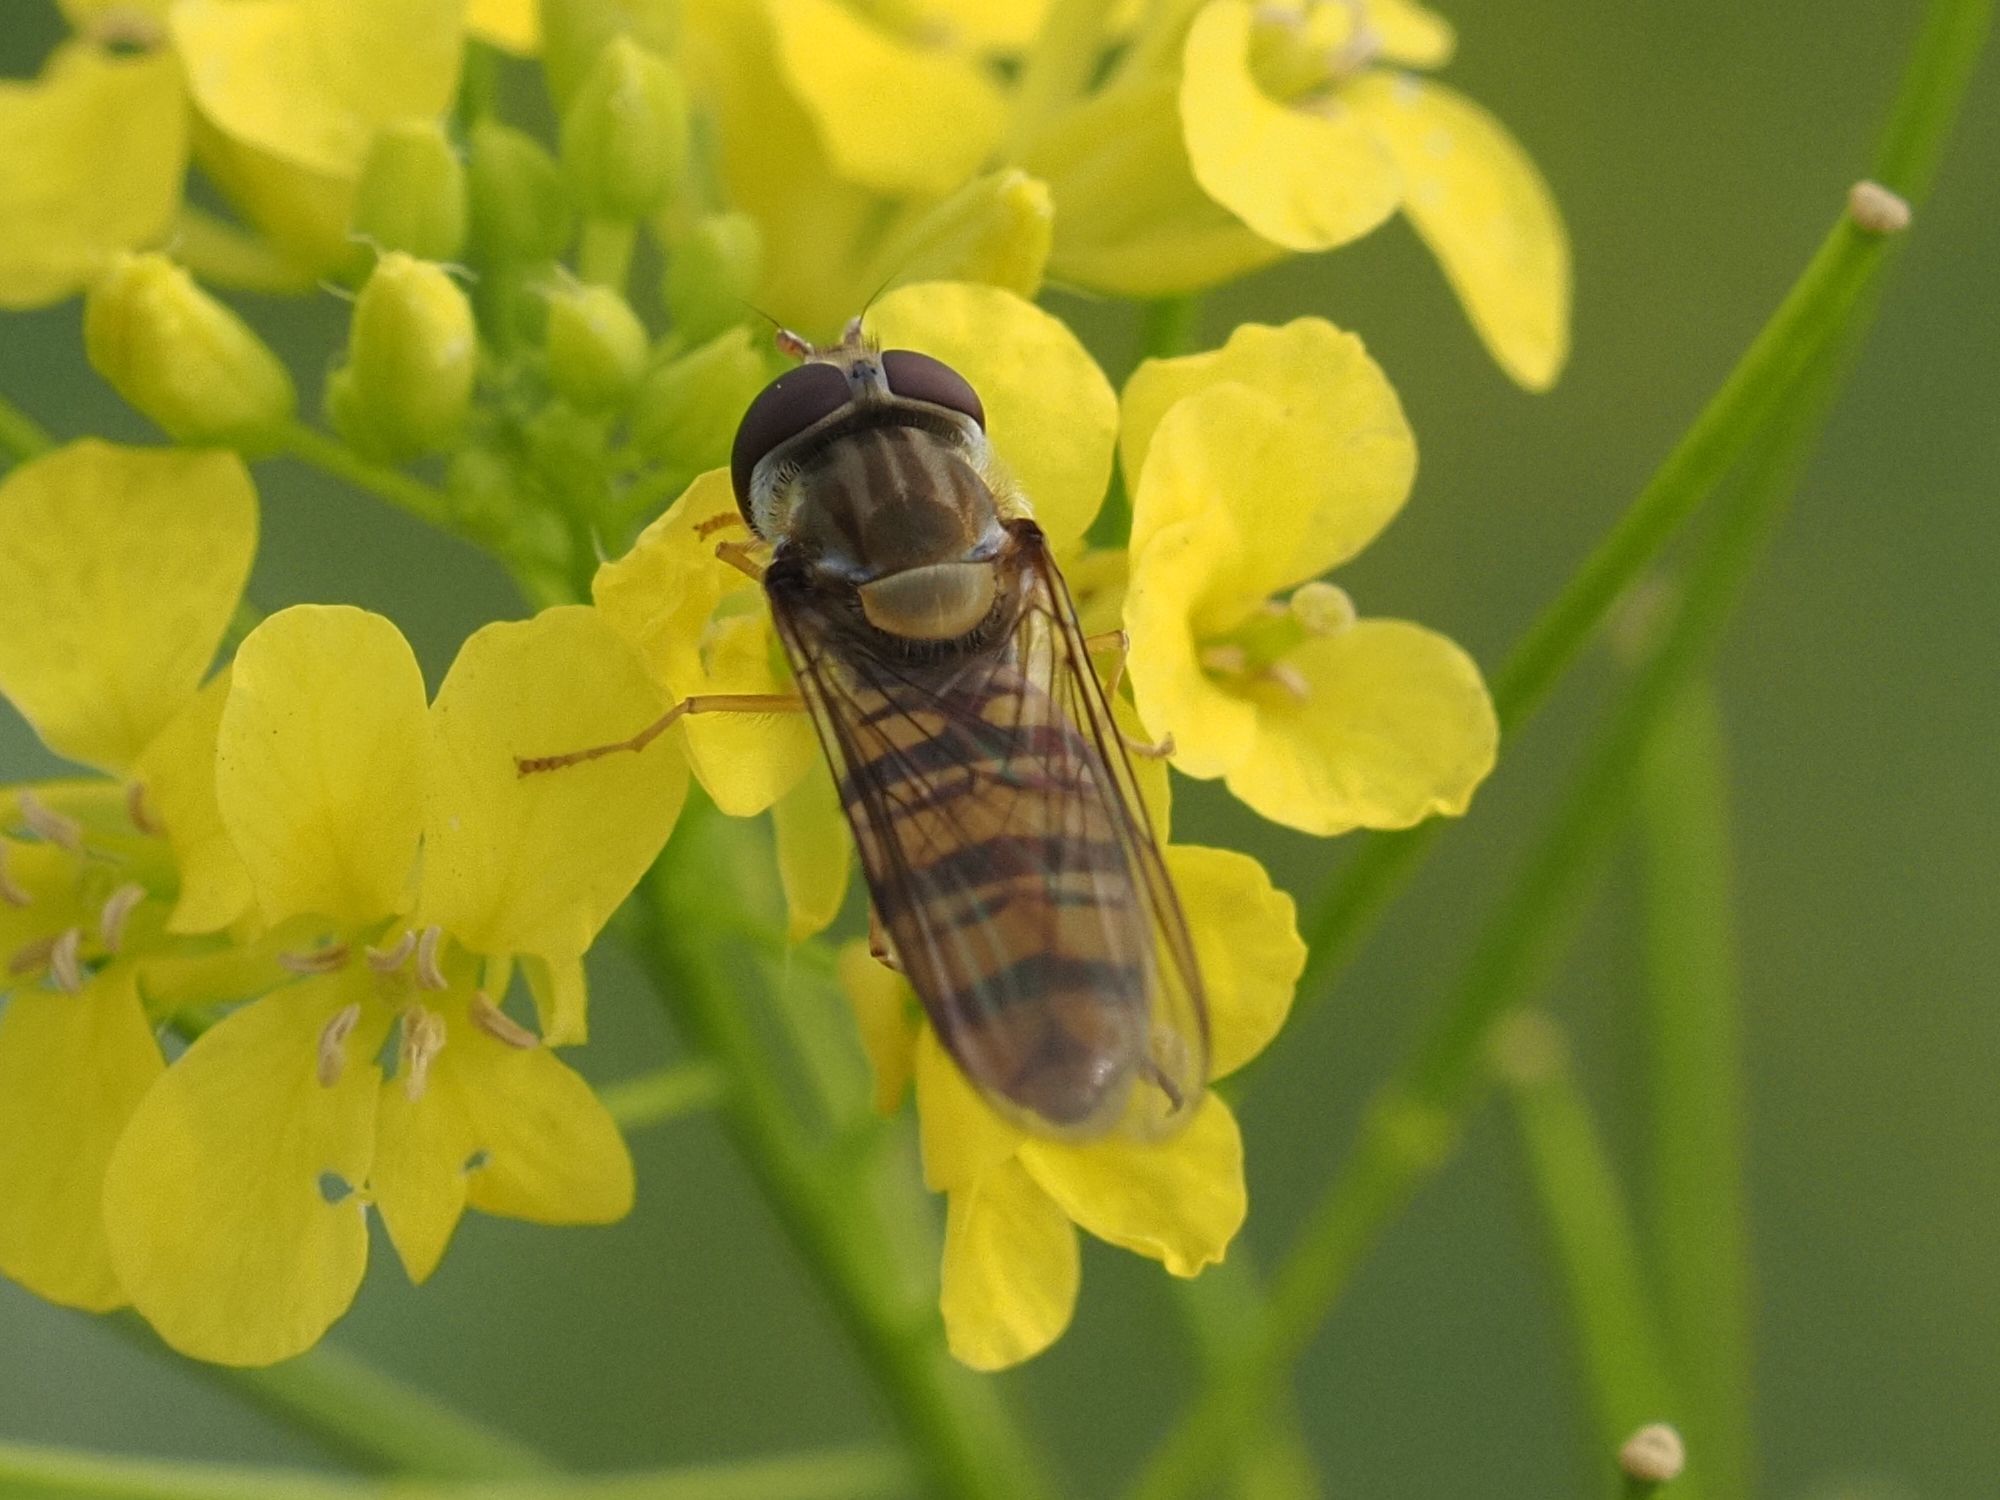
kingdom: Animalia
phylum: Arthropoda
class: Insecta
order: Diptera
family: Syrphidae
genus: Episyrphus
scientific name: Episyrphus balteatus
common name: Marmalade hoverfly
